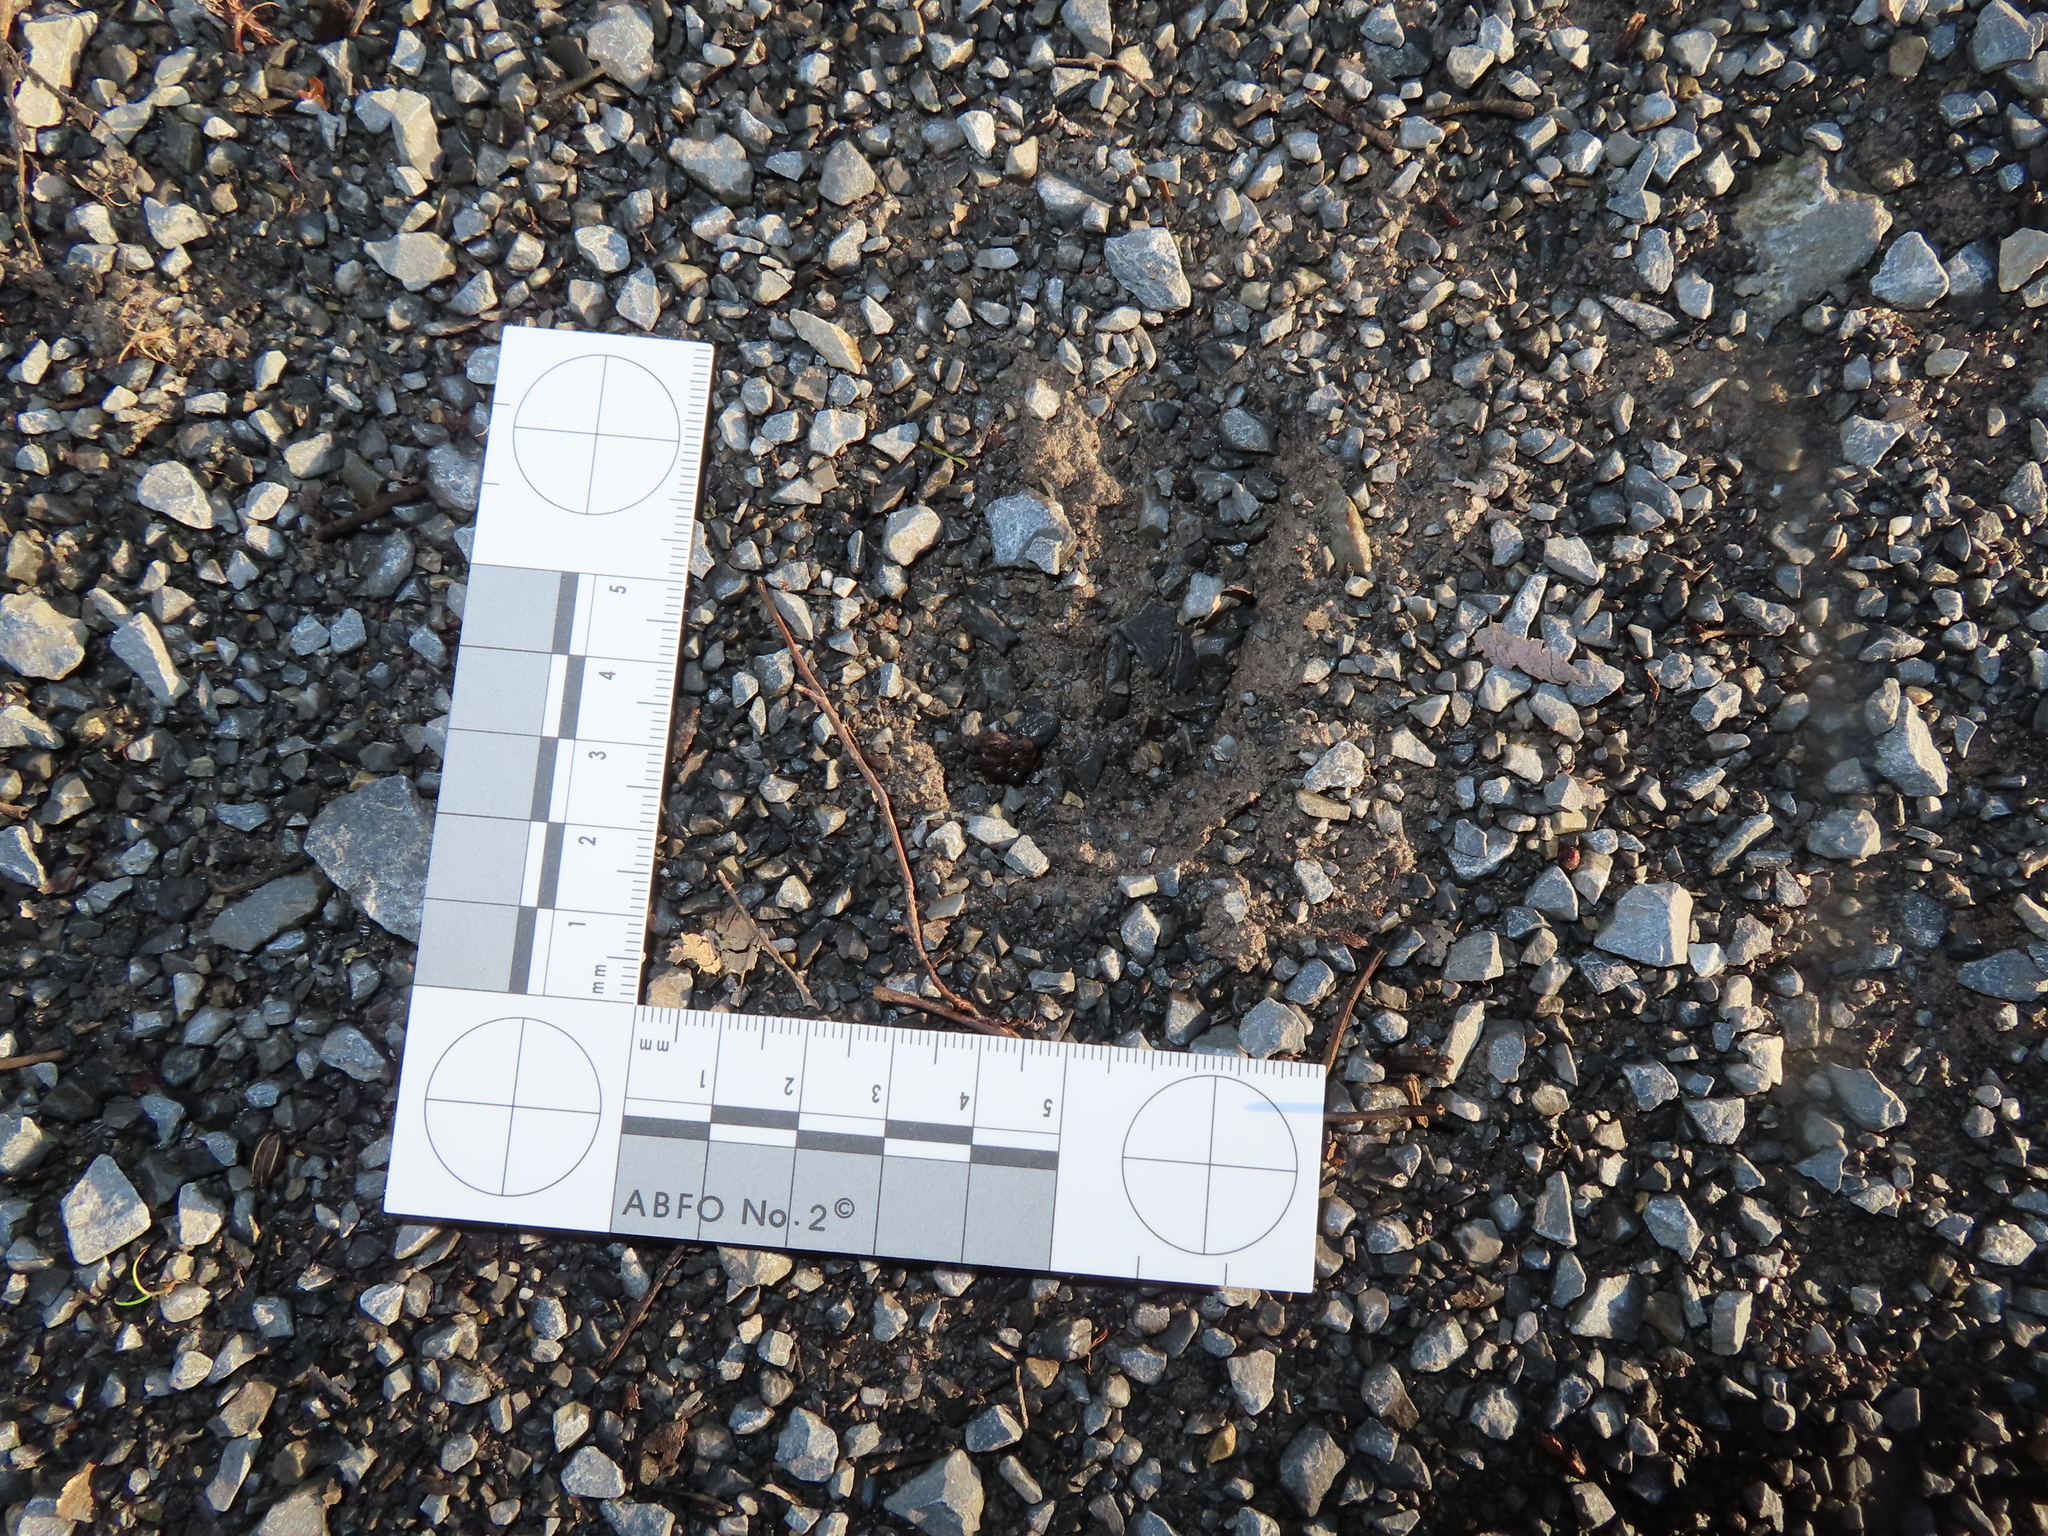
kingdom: Animalia
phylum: Chordata
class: Mammalia
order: Artiodactyla
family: Cervidae
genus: Odocoileus
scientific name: Odocoileus virginianus
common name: White-tailed deer
